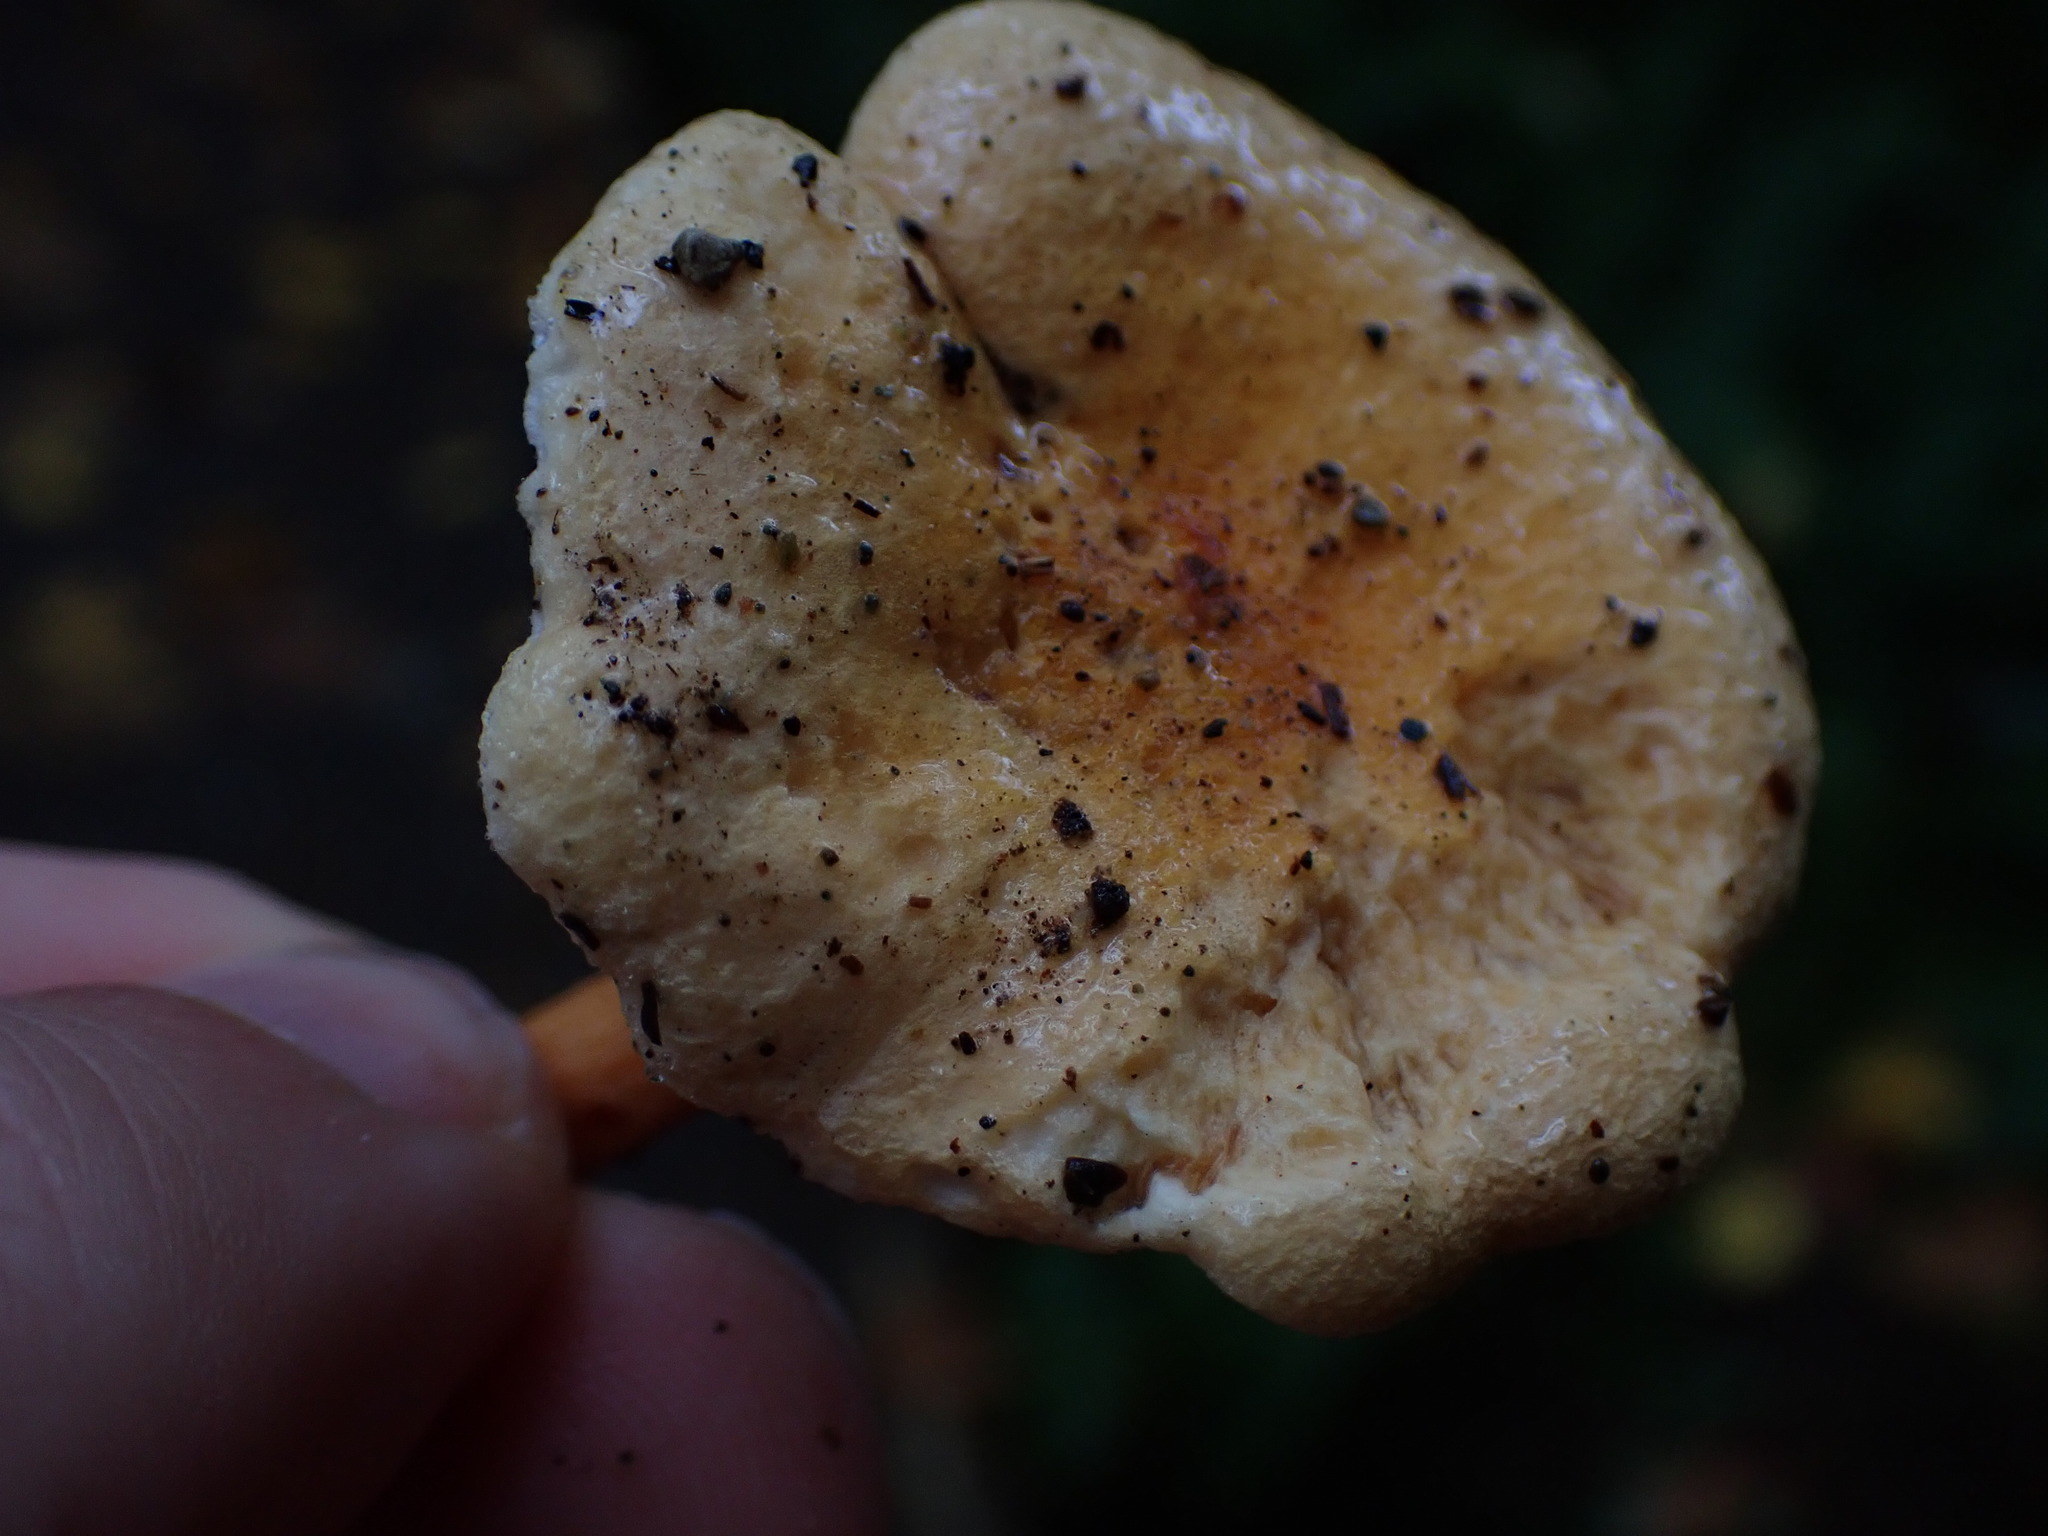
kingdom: Fungi
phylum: Basidiomycota
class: Agaricomycetes
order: Boletales
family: Hygrophoropsidaceae
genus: Hygrophoropsis
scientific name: Hygrophoropsis aurantiaca
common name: False chanterelle
